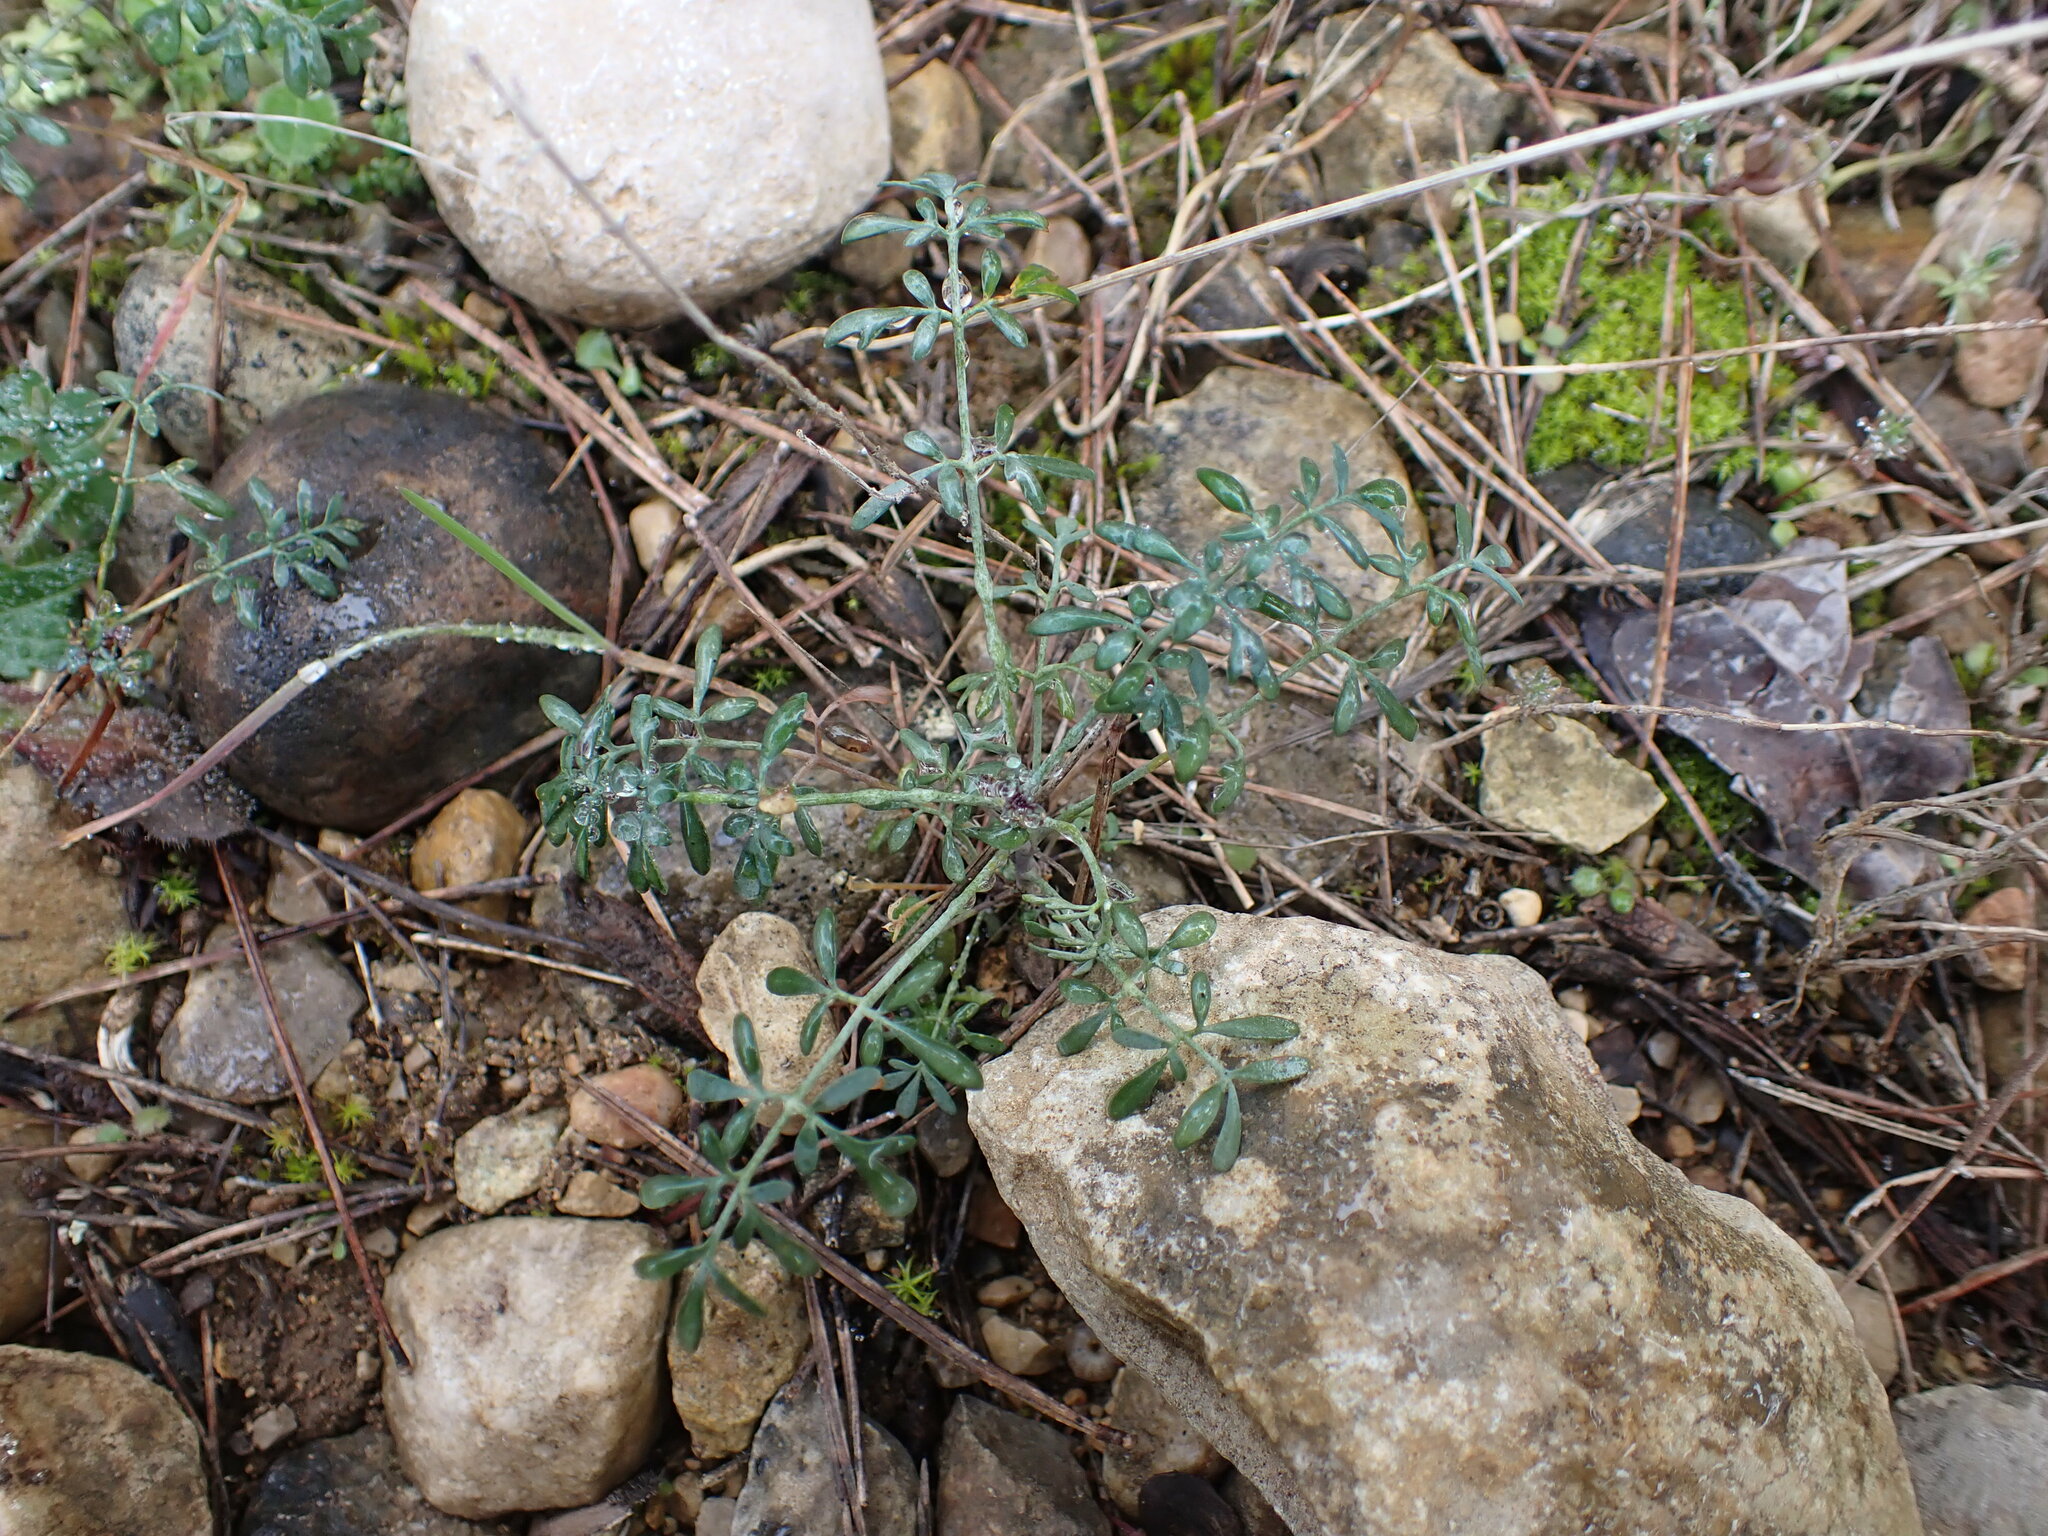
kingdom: Plantae
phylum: Tracheophyta
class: Magnoliopsida
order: Sapindales
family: Rutaceae
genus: Ruta
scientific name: Ruta angustifolia
